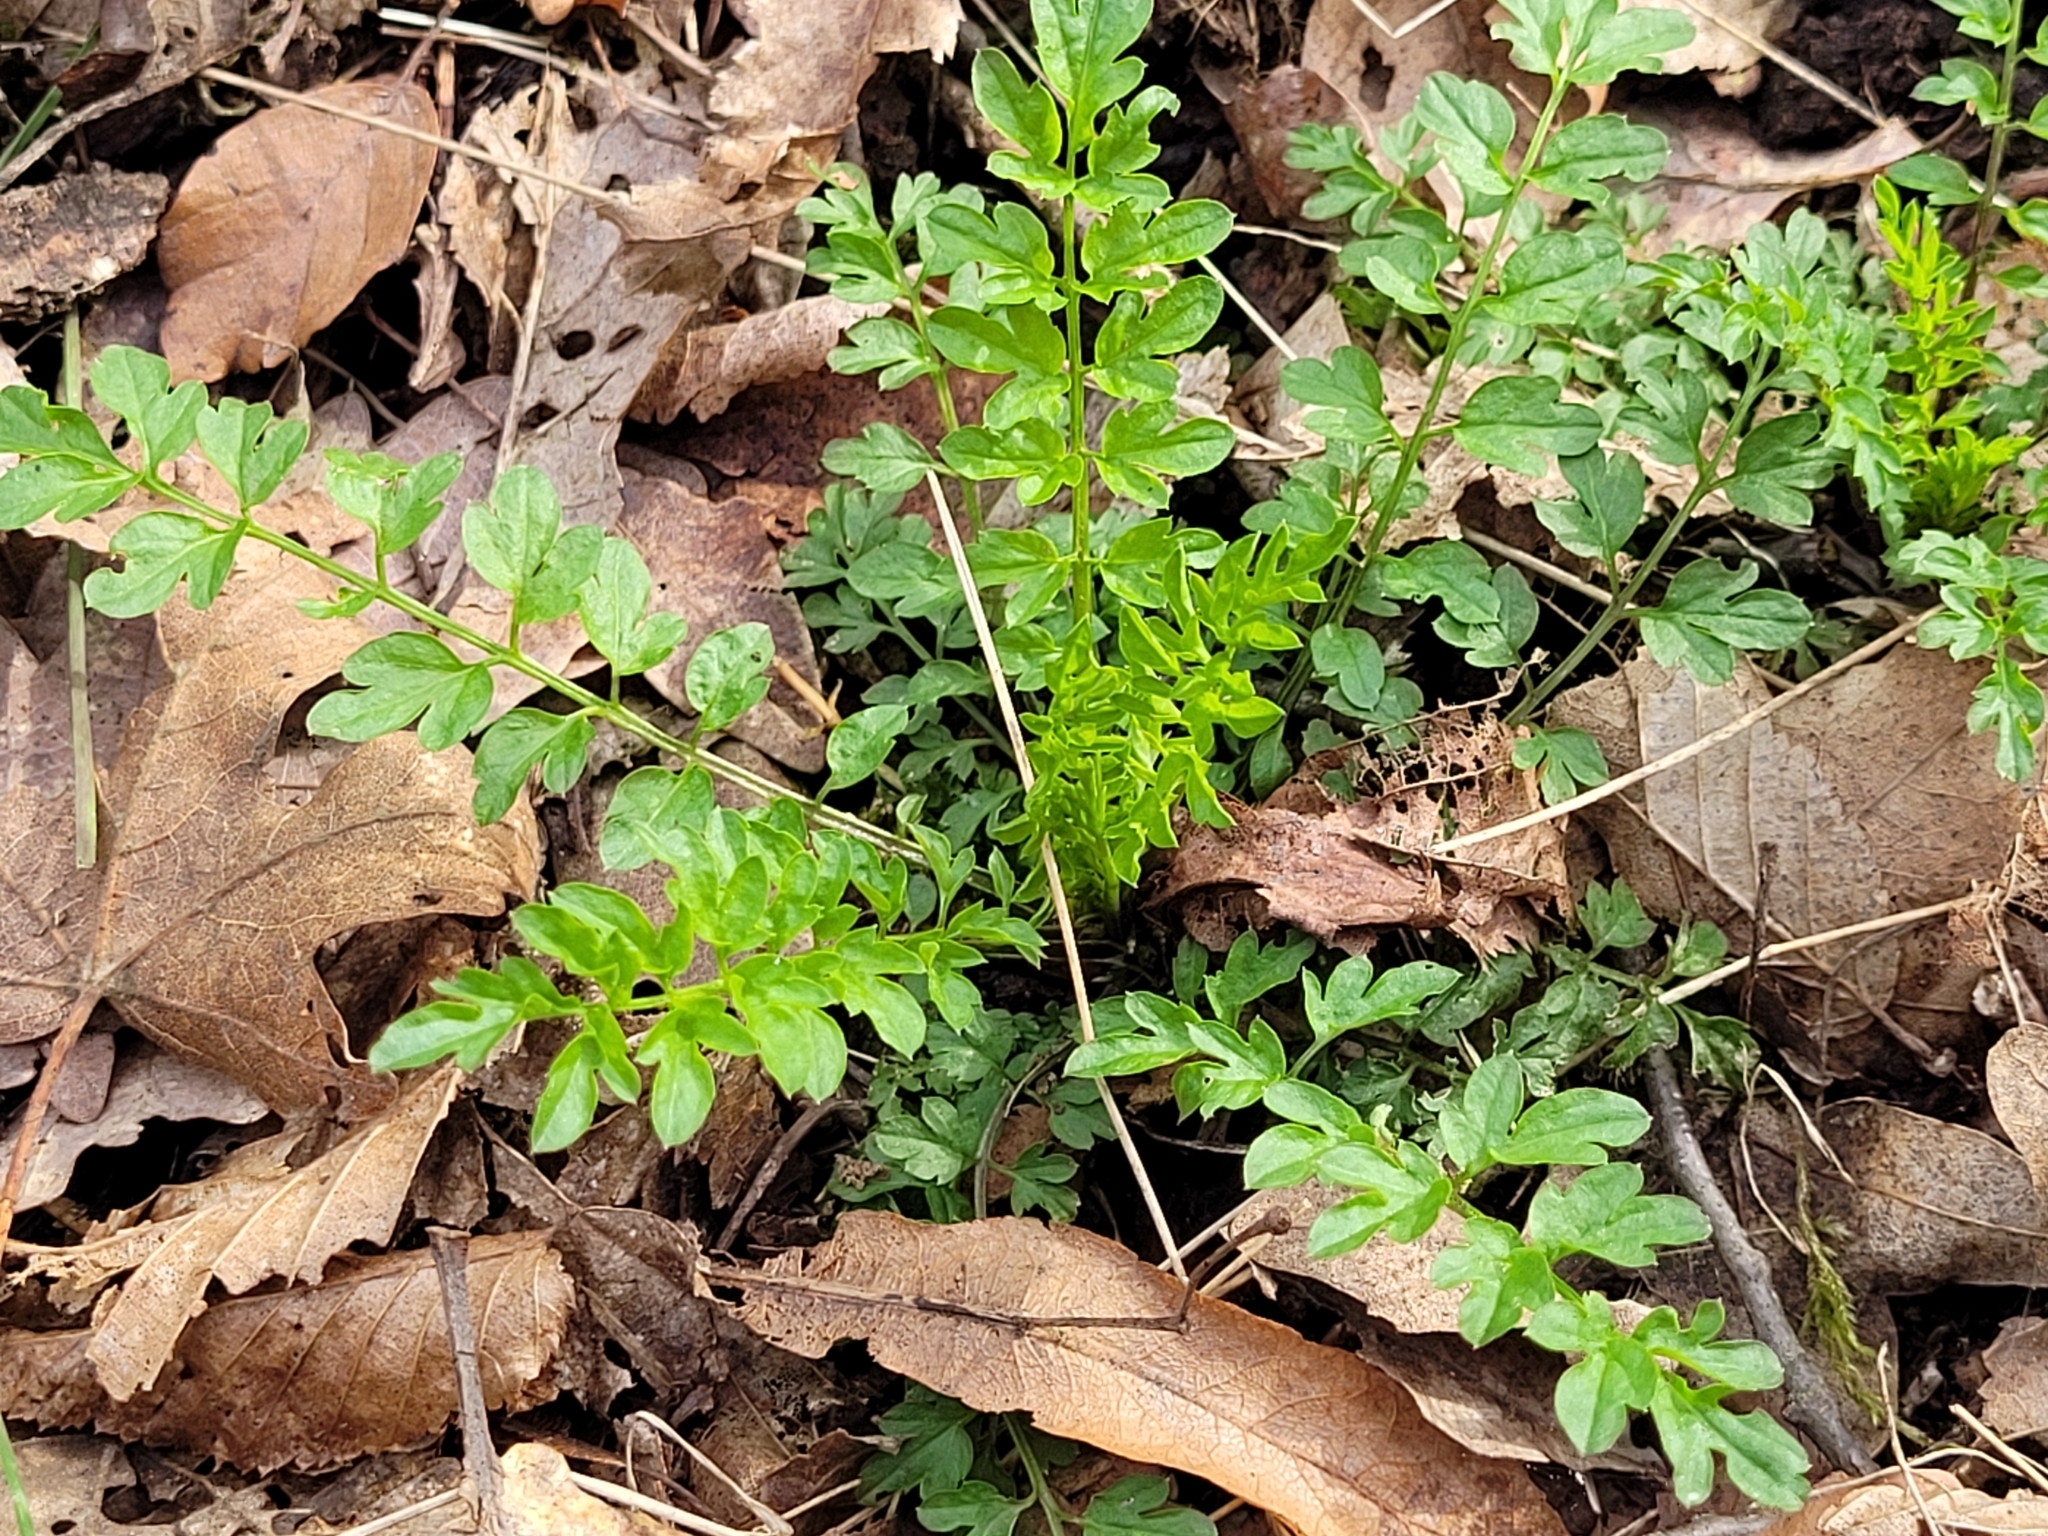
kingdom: Plantae
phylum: Tracheophyta
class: Magnoliopsida
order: Brassicales
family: Brassicaceae
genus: Cardamine
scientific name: Cardamine impatiens
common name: Narrow-leaved bitter-cress
